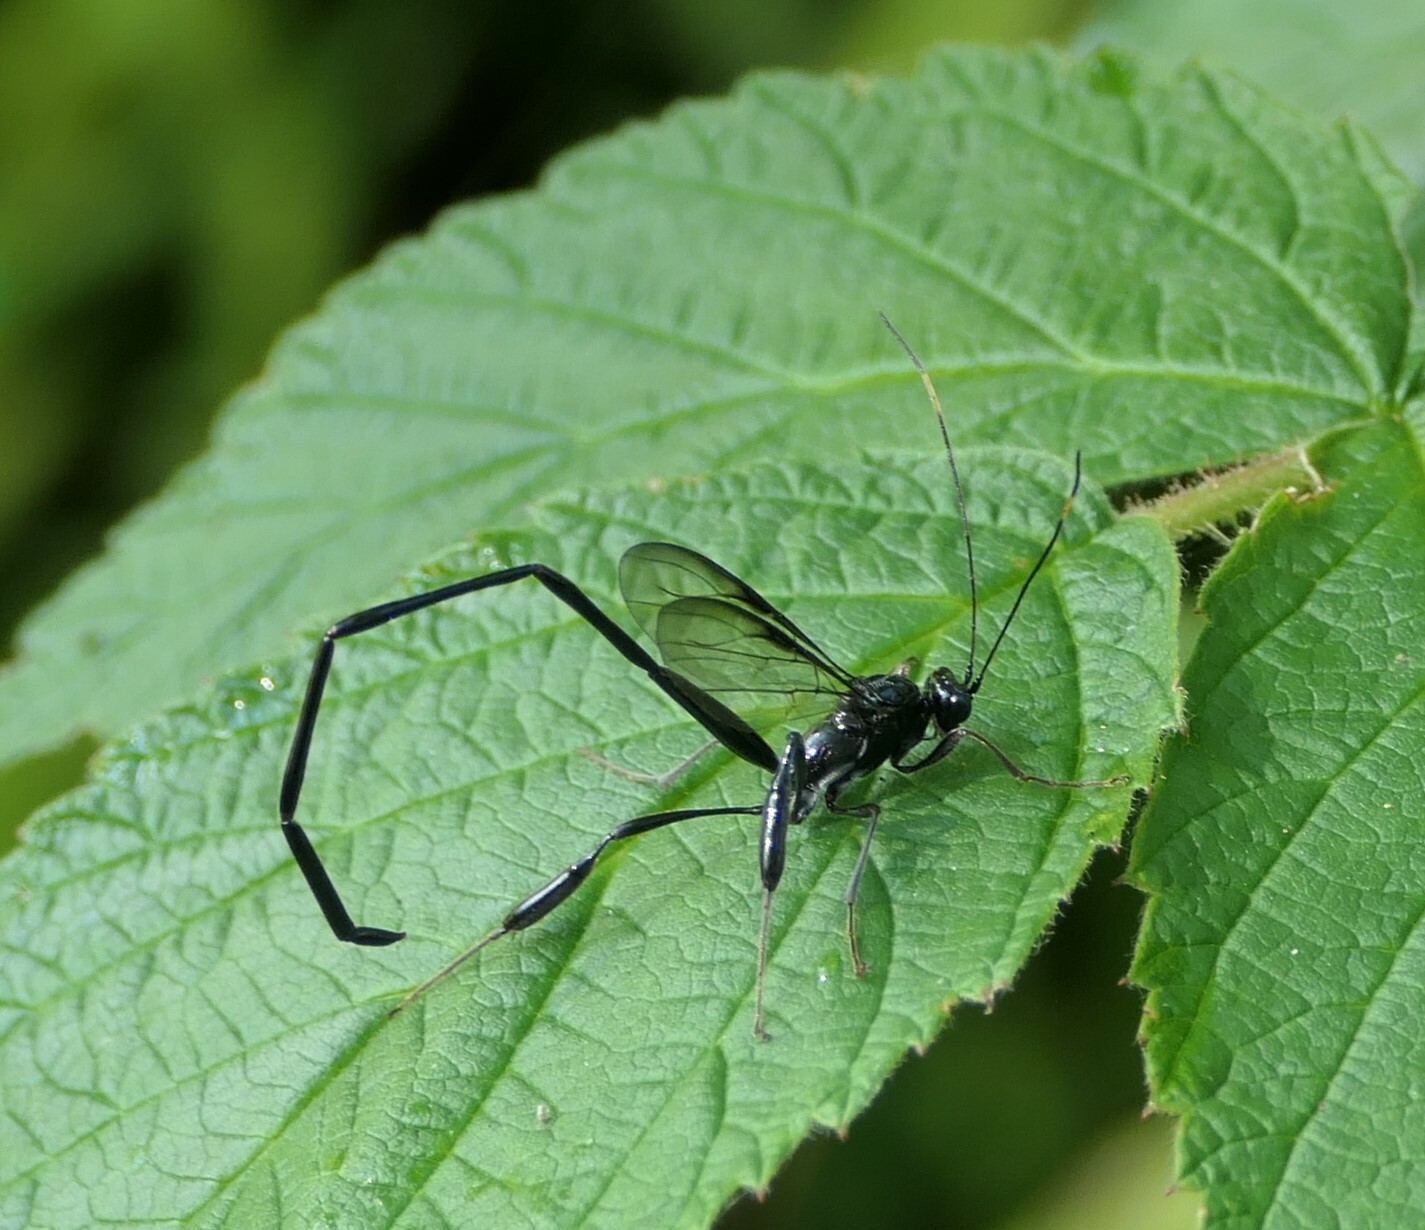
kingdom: Animalia
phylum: Arthropoda
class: Insecta
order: Hymenoptera
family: Pelecinidae
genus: Pelecinus
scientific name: Pelecinus polyturator
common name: American pelecinid wasp
